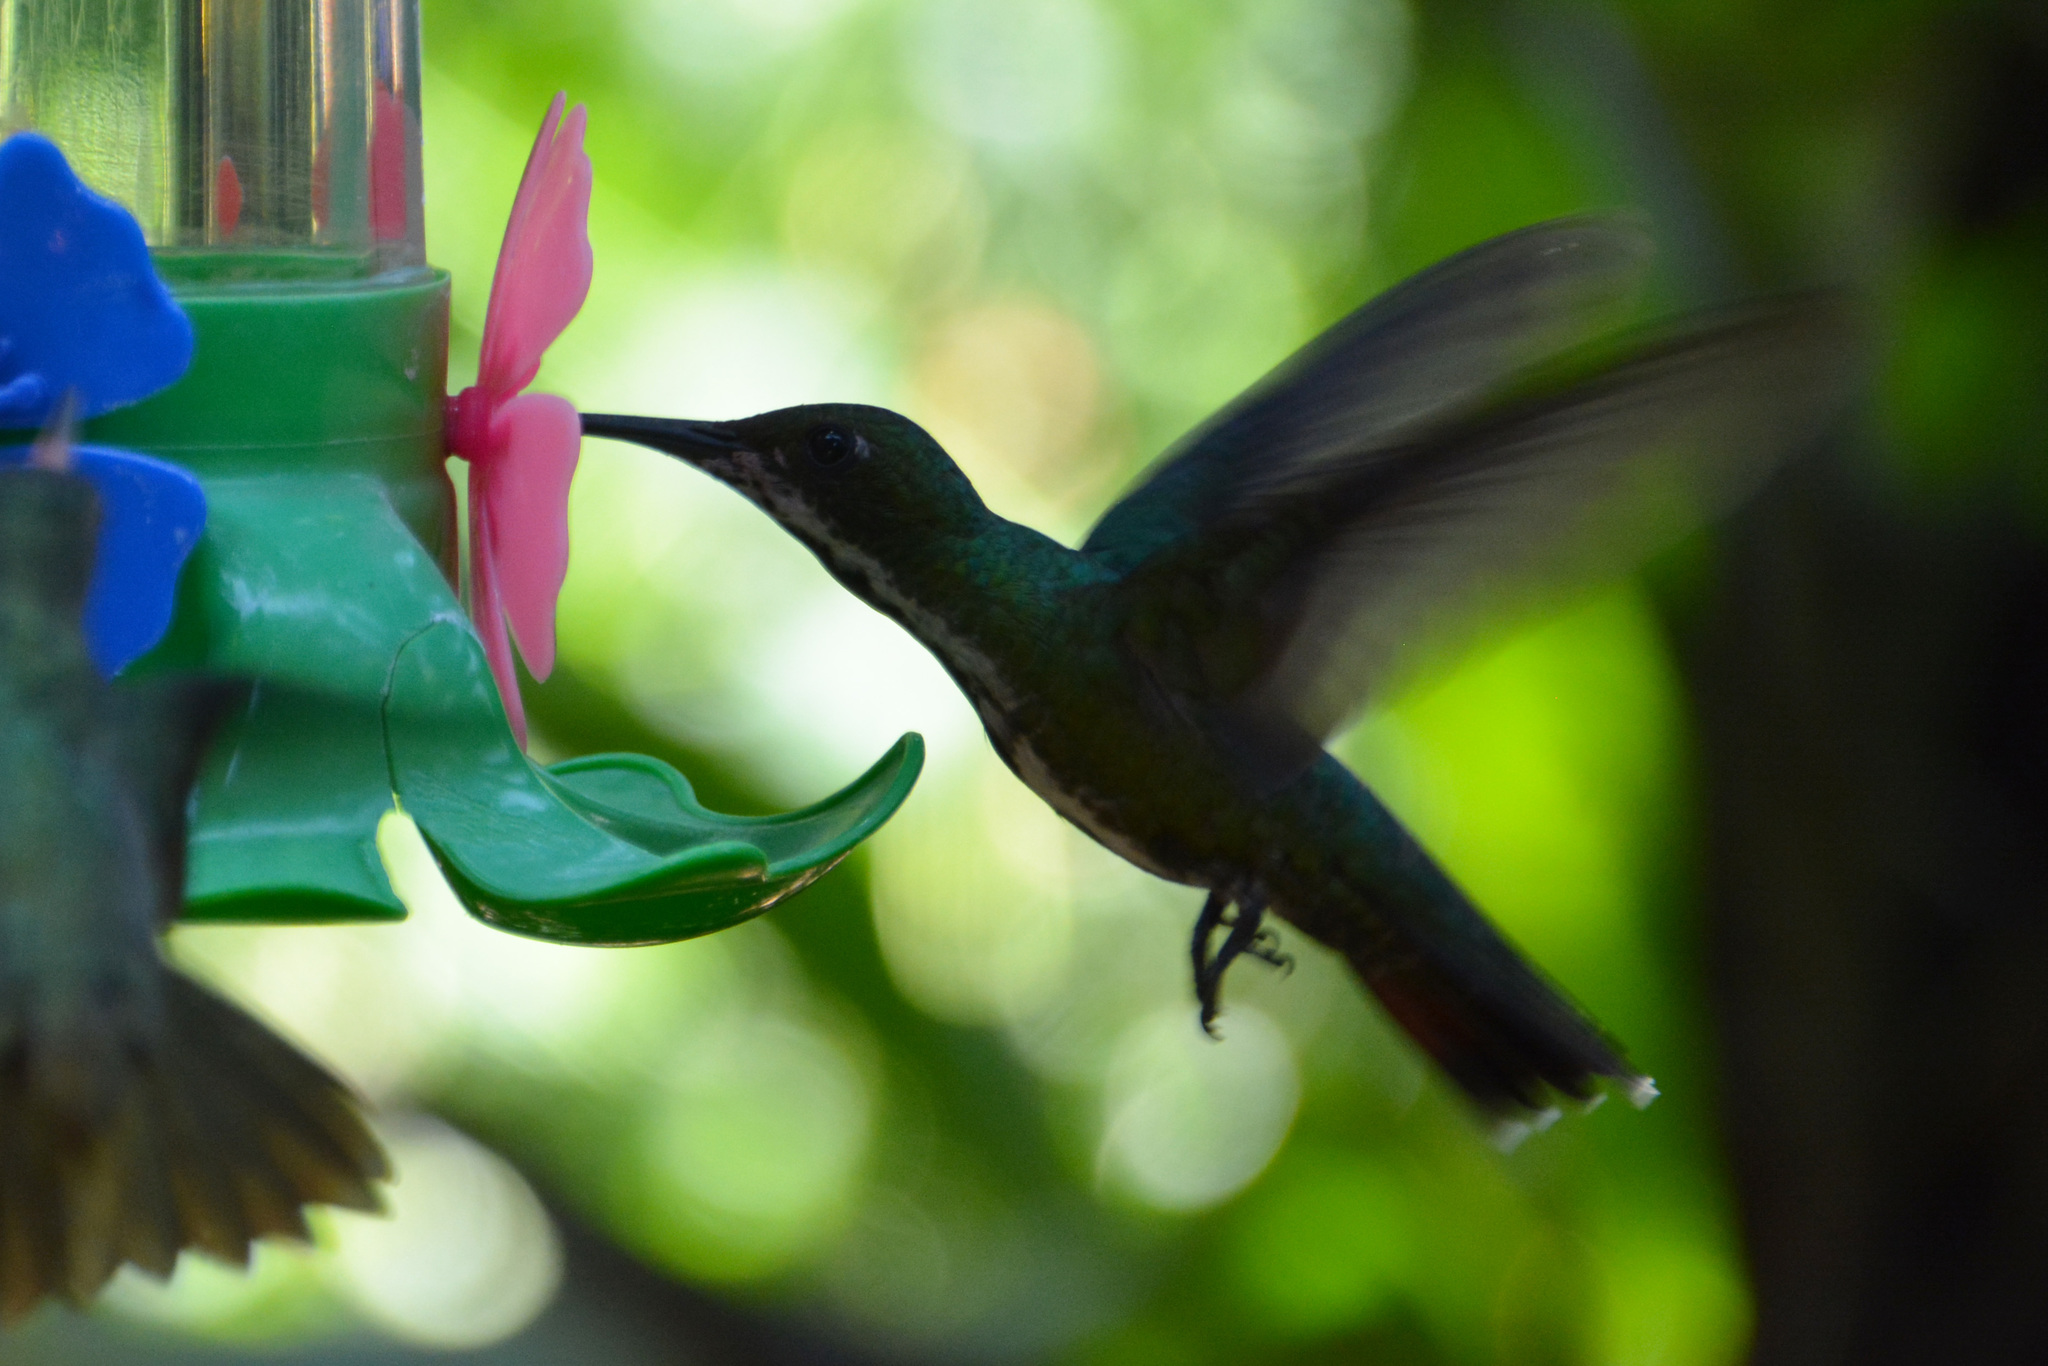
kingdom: Animalia
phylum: Chordata
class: Aves
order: Apodiformes
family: Trochilidae
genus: Anthracothorax
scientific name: Anthracothorax nigricollis
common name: Black-throated mango
